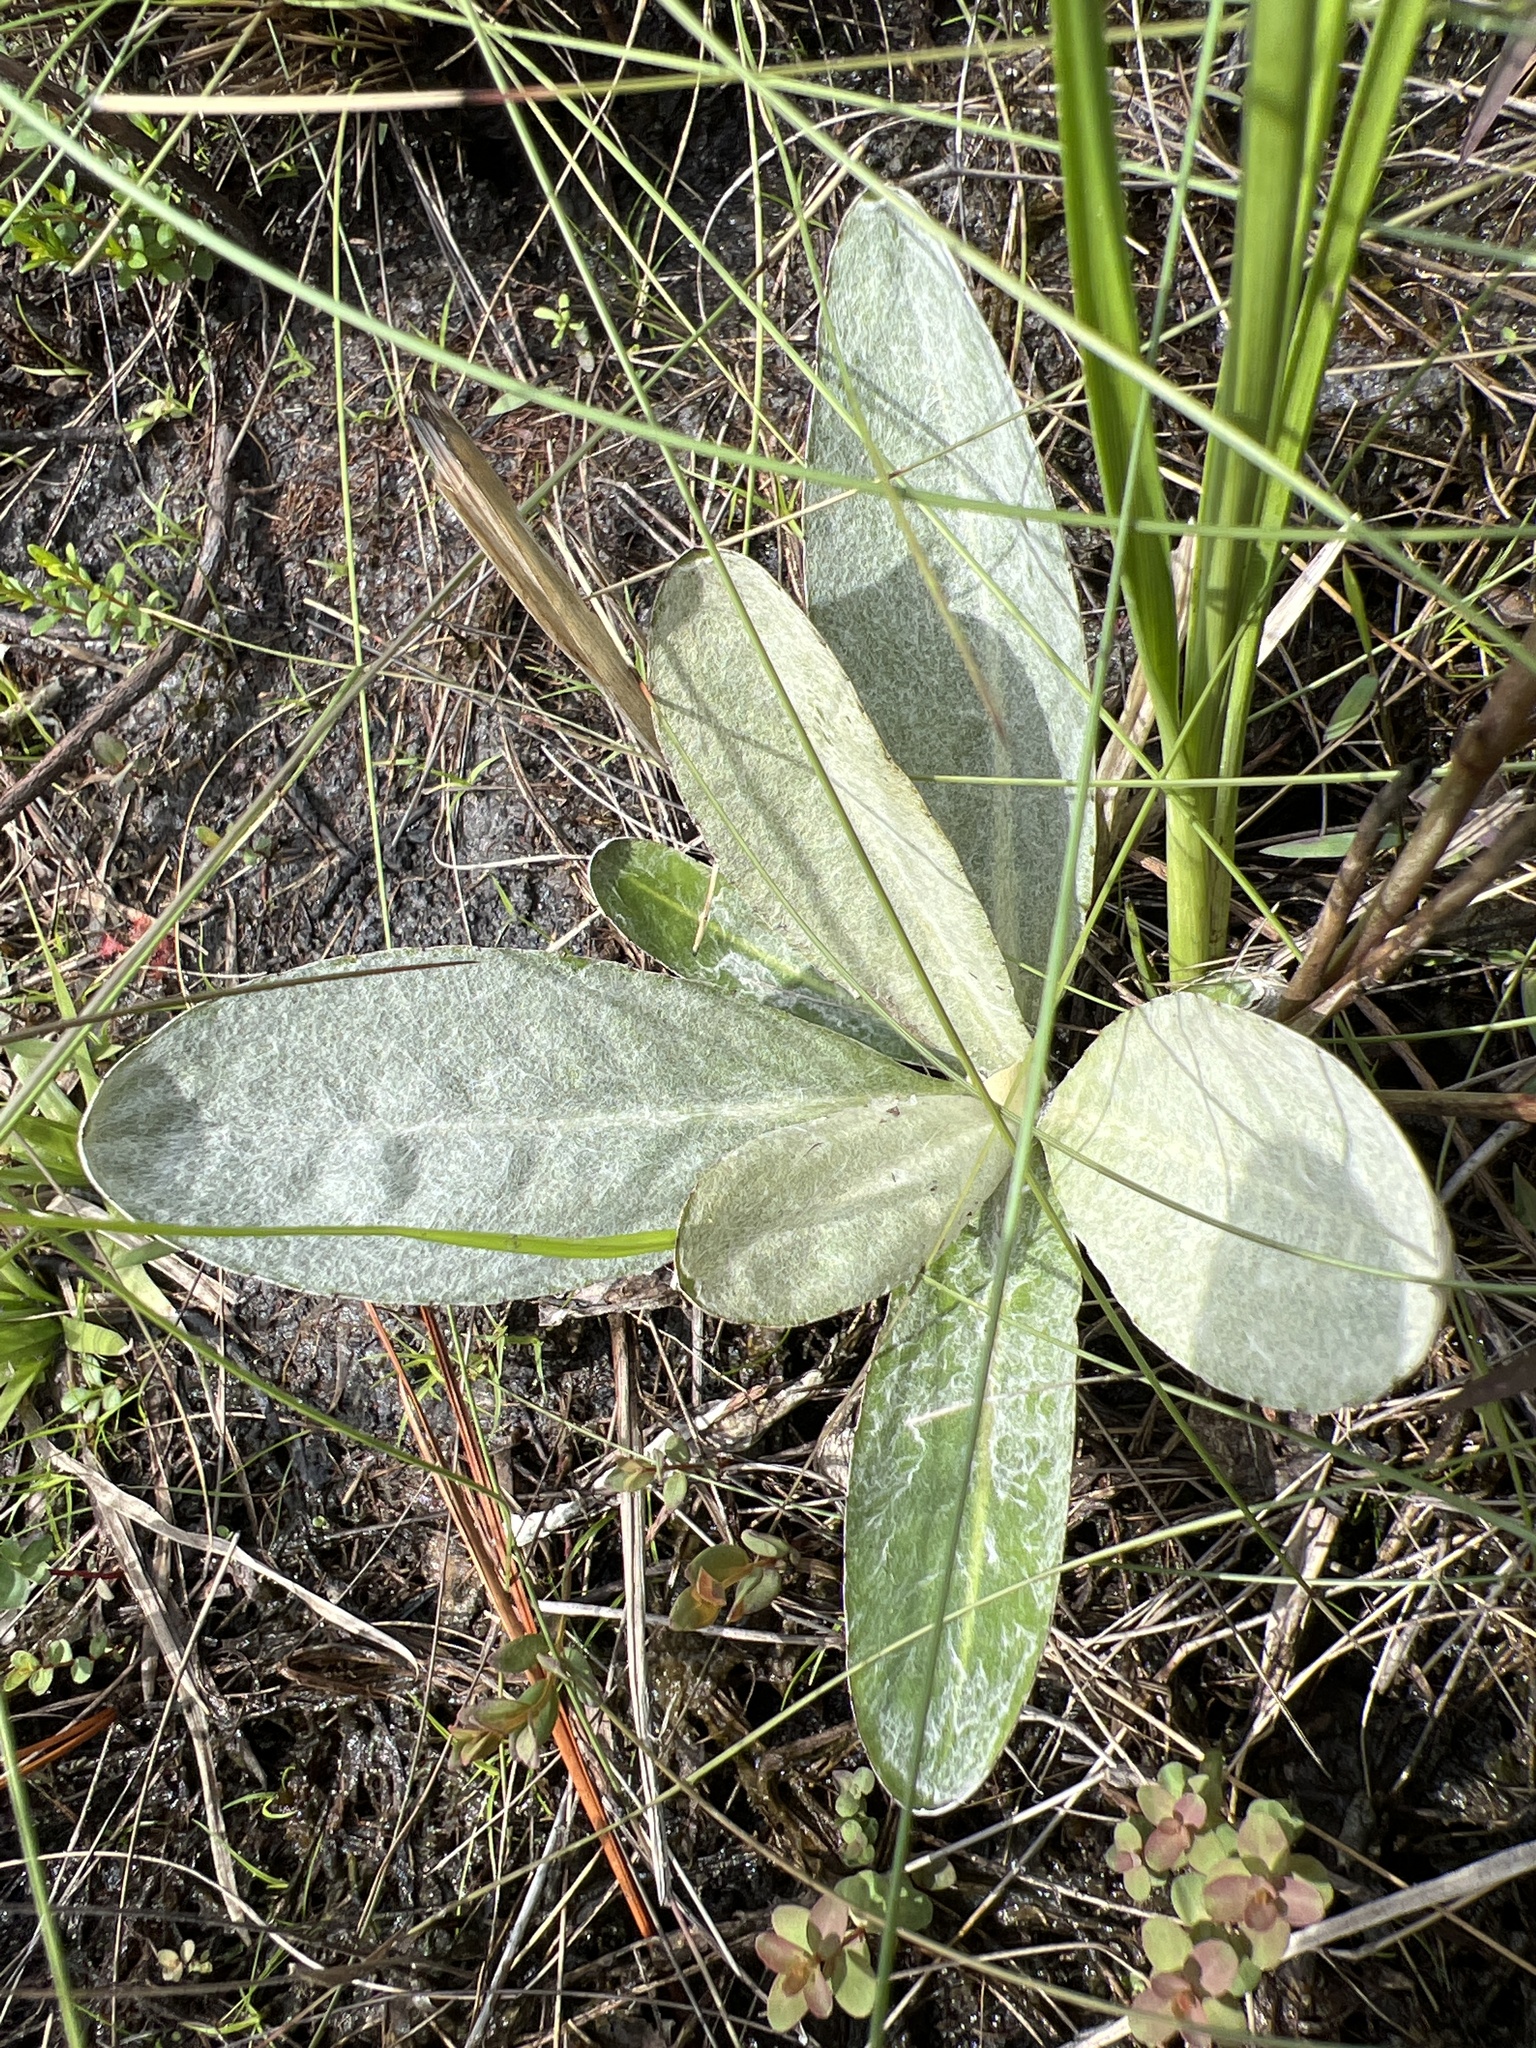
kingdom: Plantae
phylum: Tracheophyta
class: Magnoliopsida
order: Asterales
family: Asteraceae
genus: Chaptalia
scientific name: Chaptalia tomentosa
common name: Woolly sunbonnet
